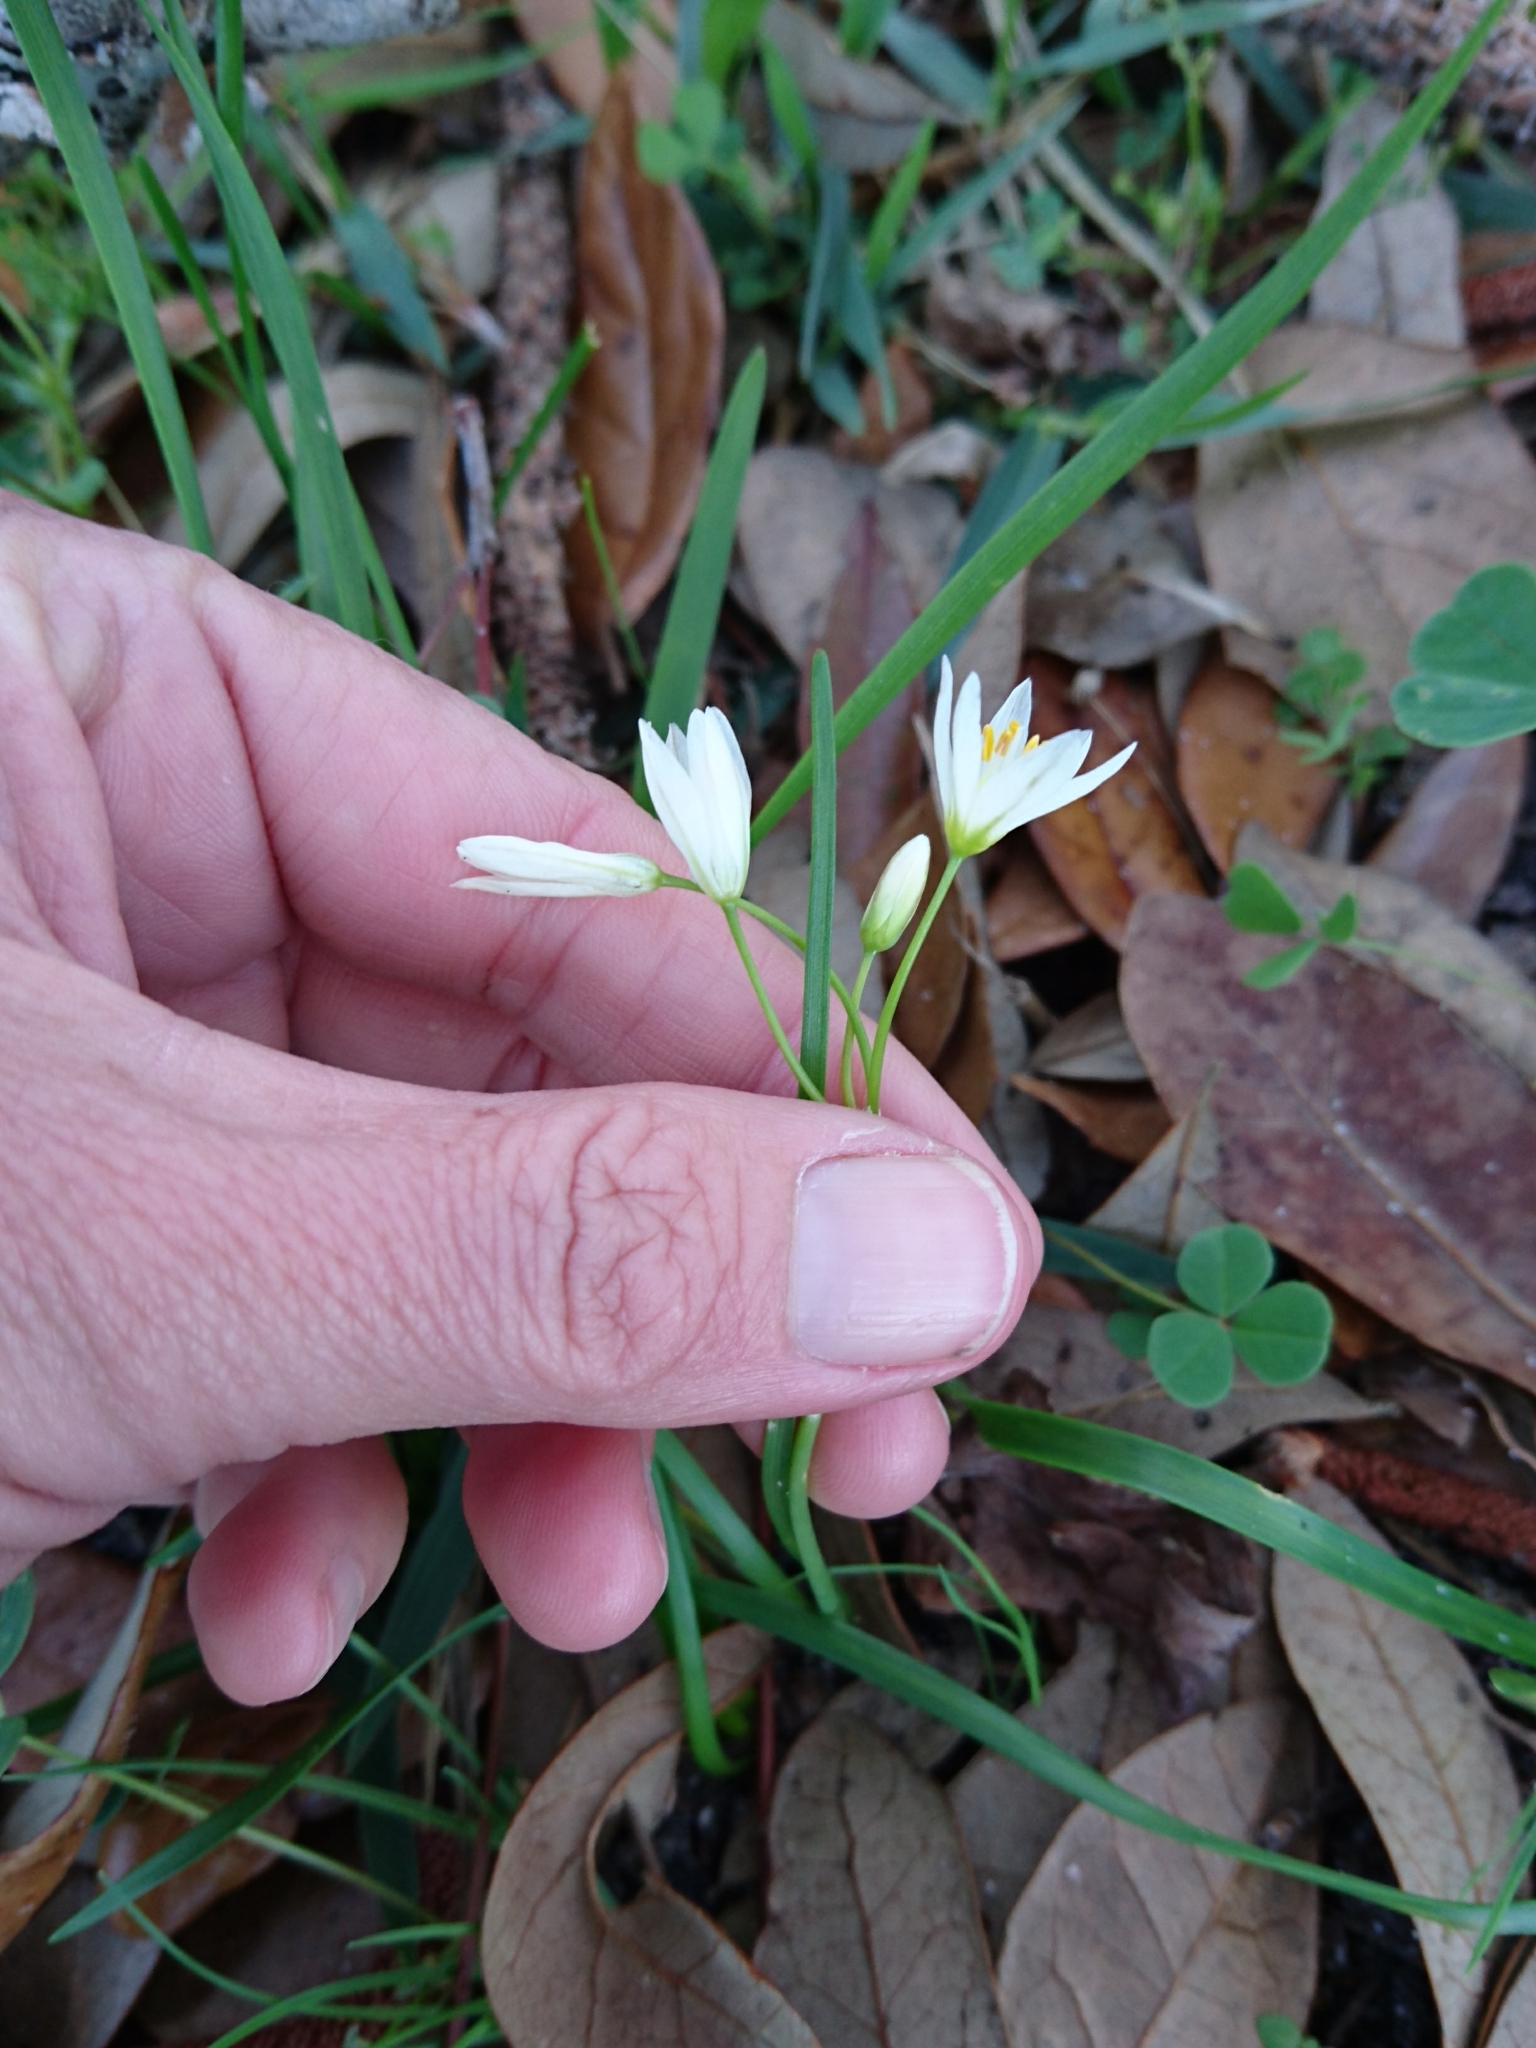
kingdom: Plantae
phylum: Tracheophyta
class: Liliopsida
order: Asparagales
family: Amaryllidaceae
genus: Nothoscordum
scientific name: Nothoscordum bivalve
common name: Crow-poison
